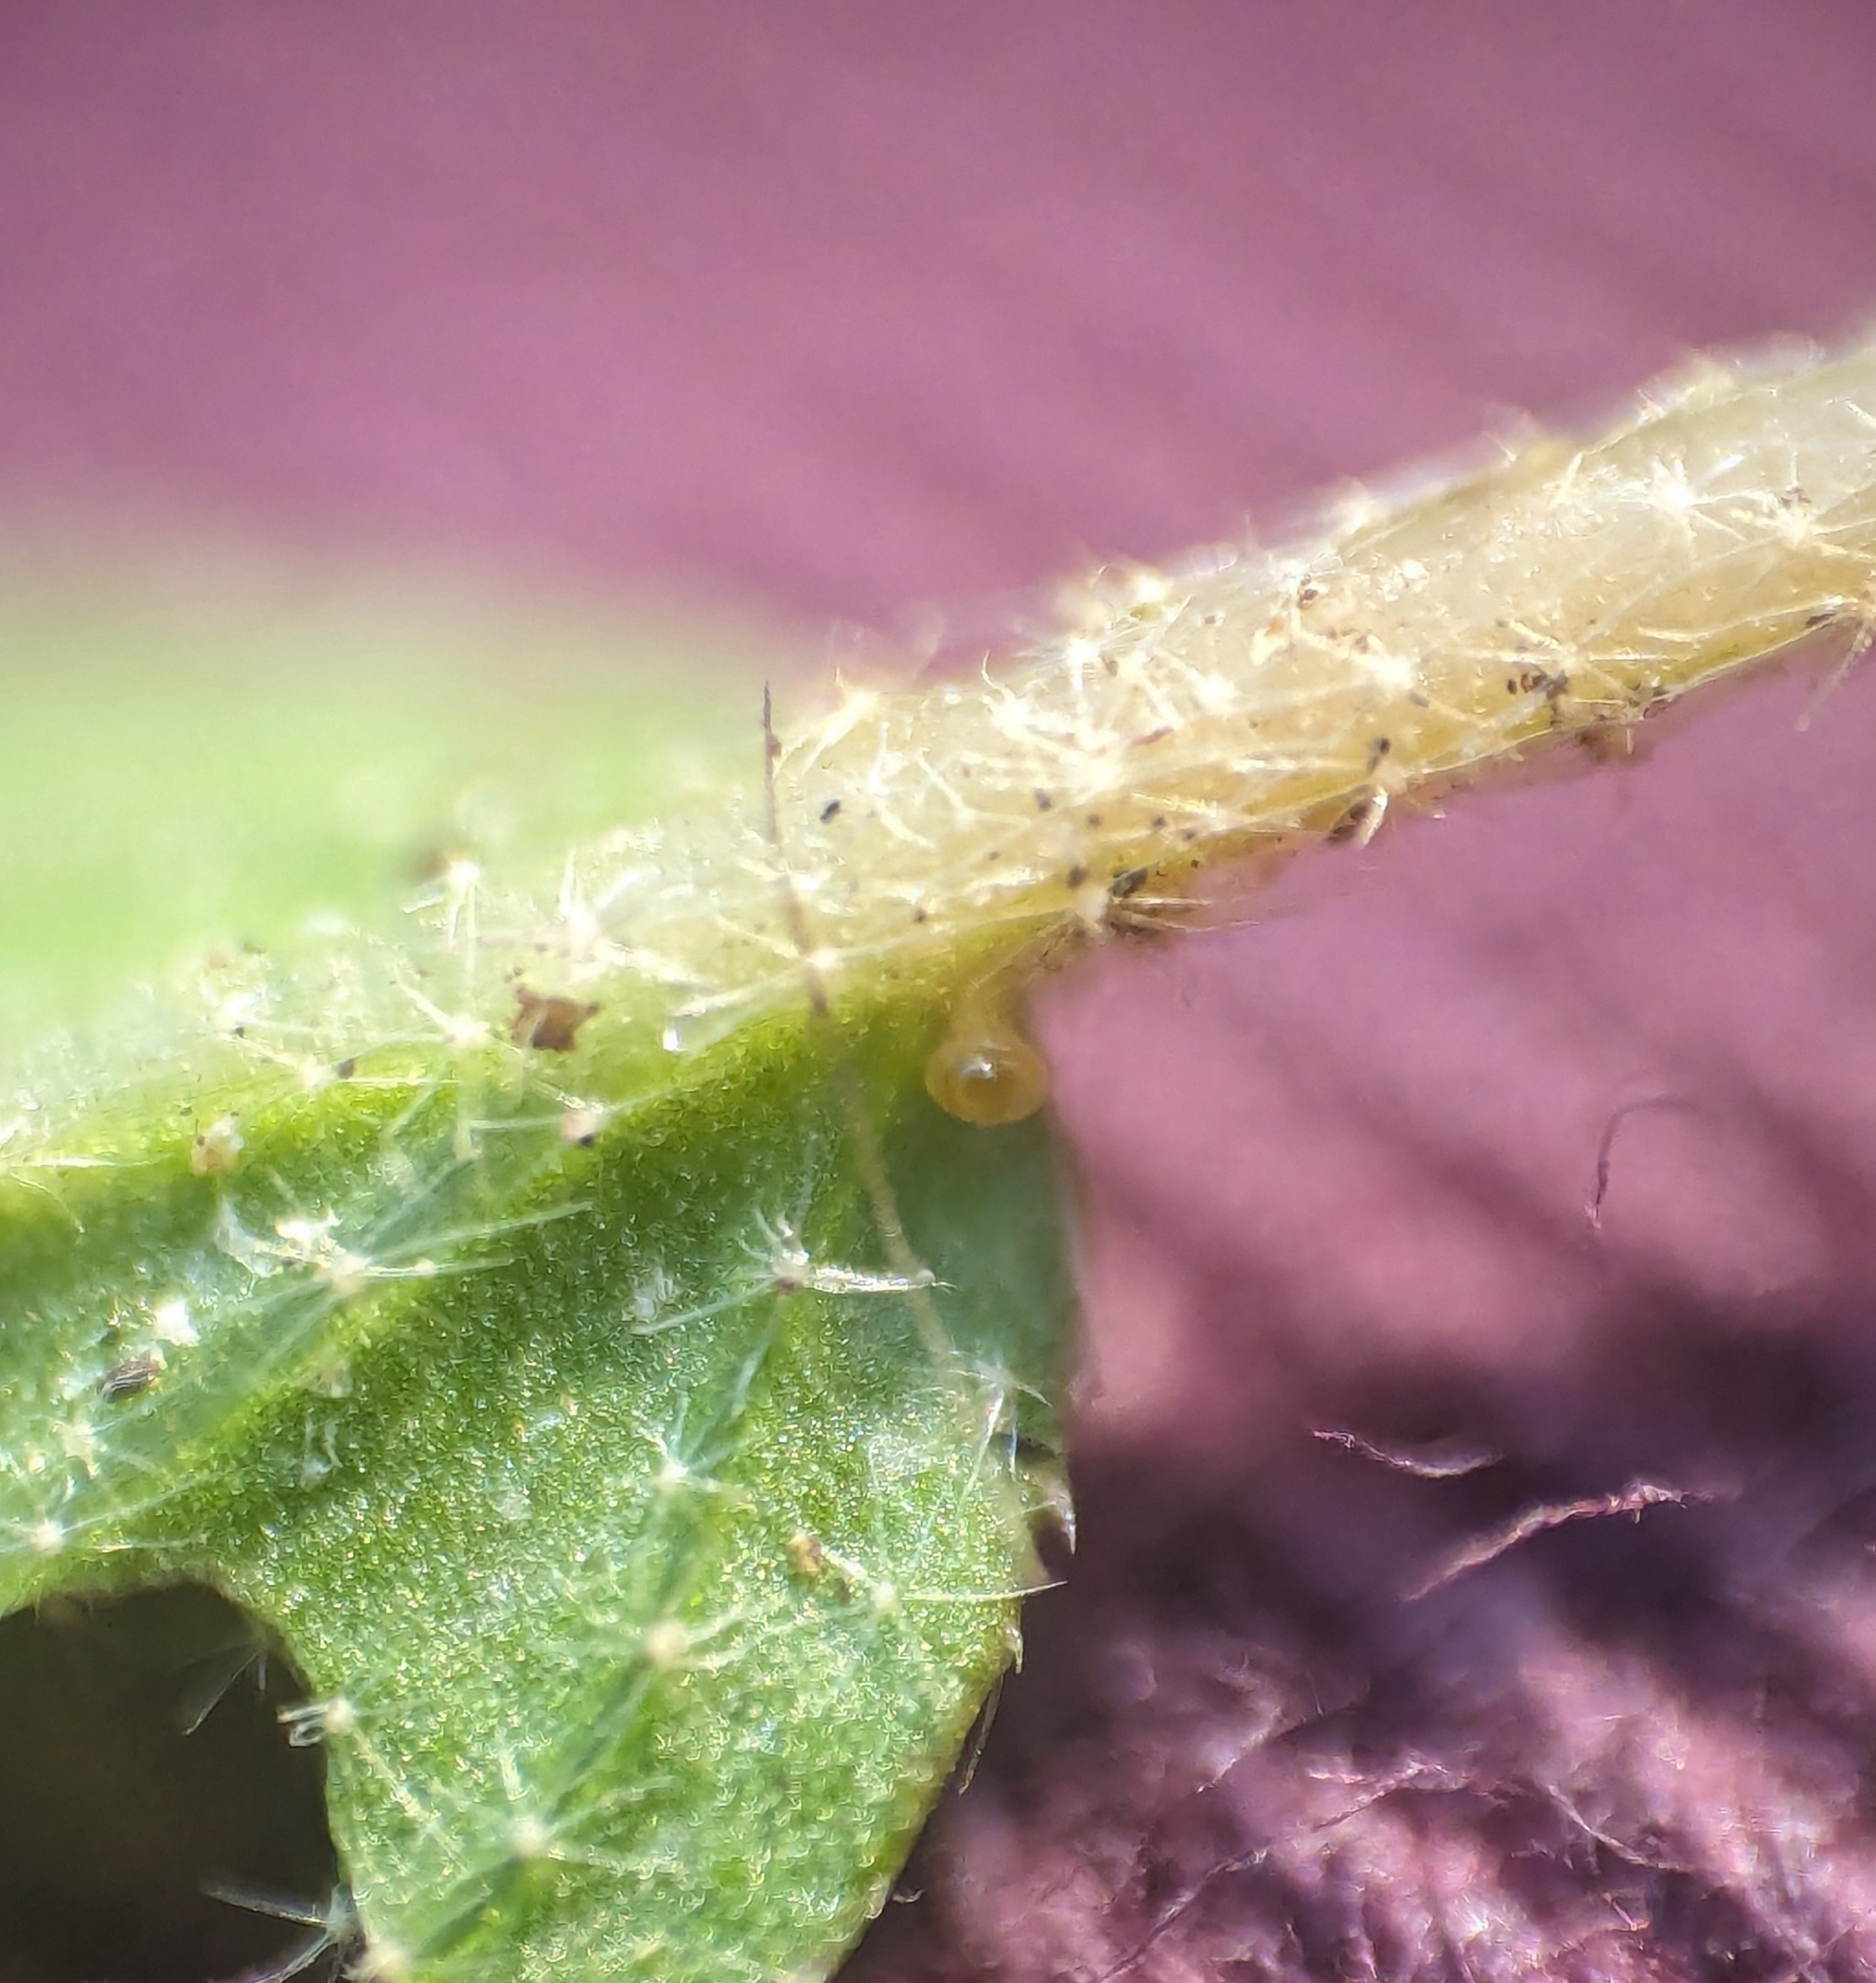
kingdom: Plantae
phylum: Tracheophyta
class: Magnoliopsida
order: Malpighiales
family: Euphorbiaceae
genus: Croton
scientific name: Croton glandulosus
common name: Tropic croton
